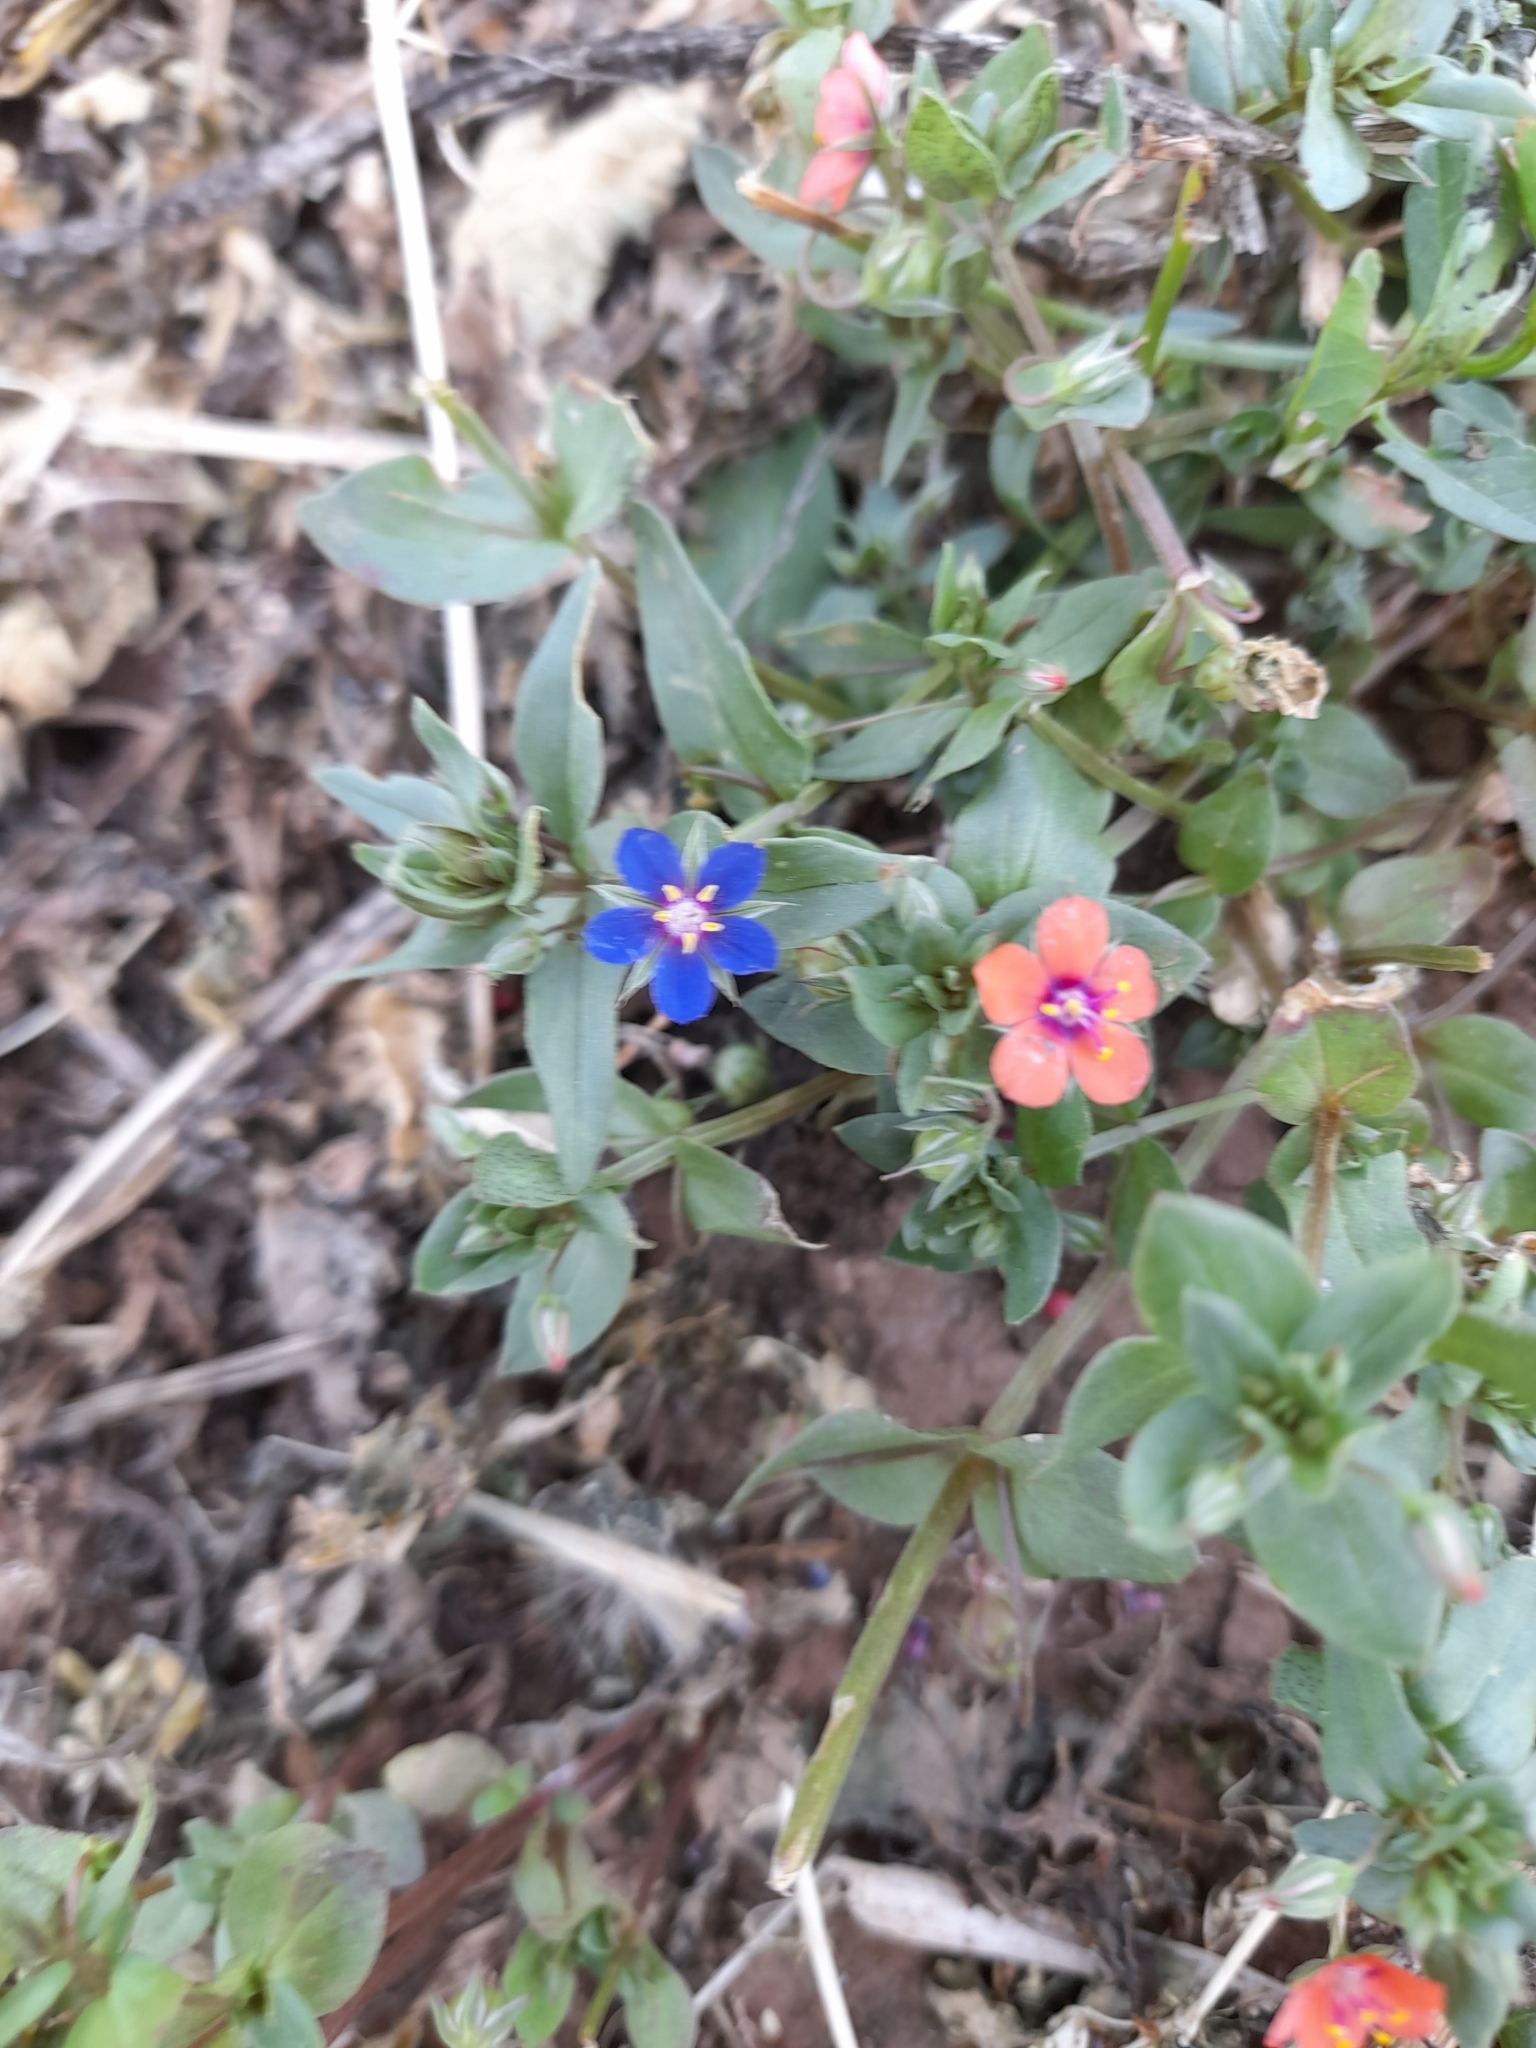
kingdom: Plantae
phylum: Tracheophyta
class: Magnoliopsida
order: Ericales
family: Primulaceae
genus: Lysimachia
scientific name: Lysimachia loeflingii
